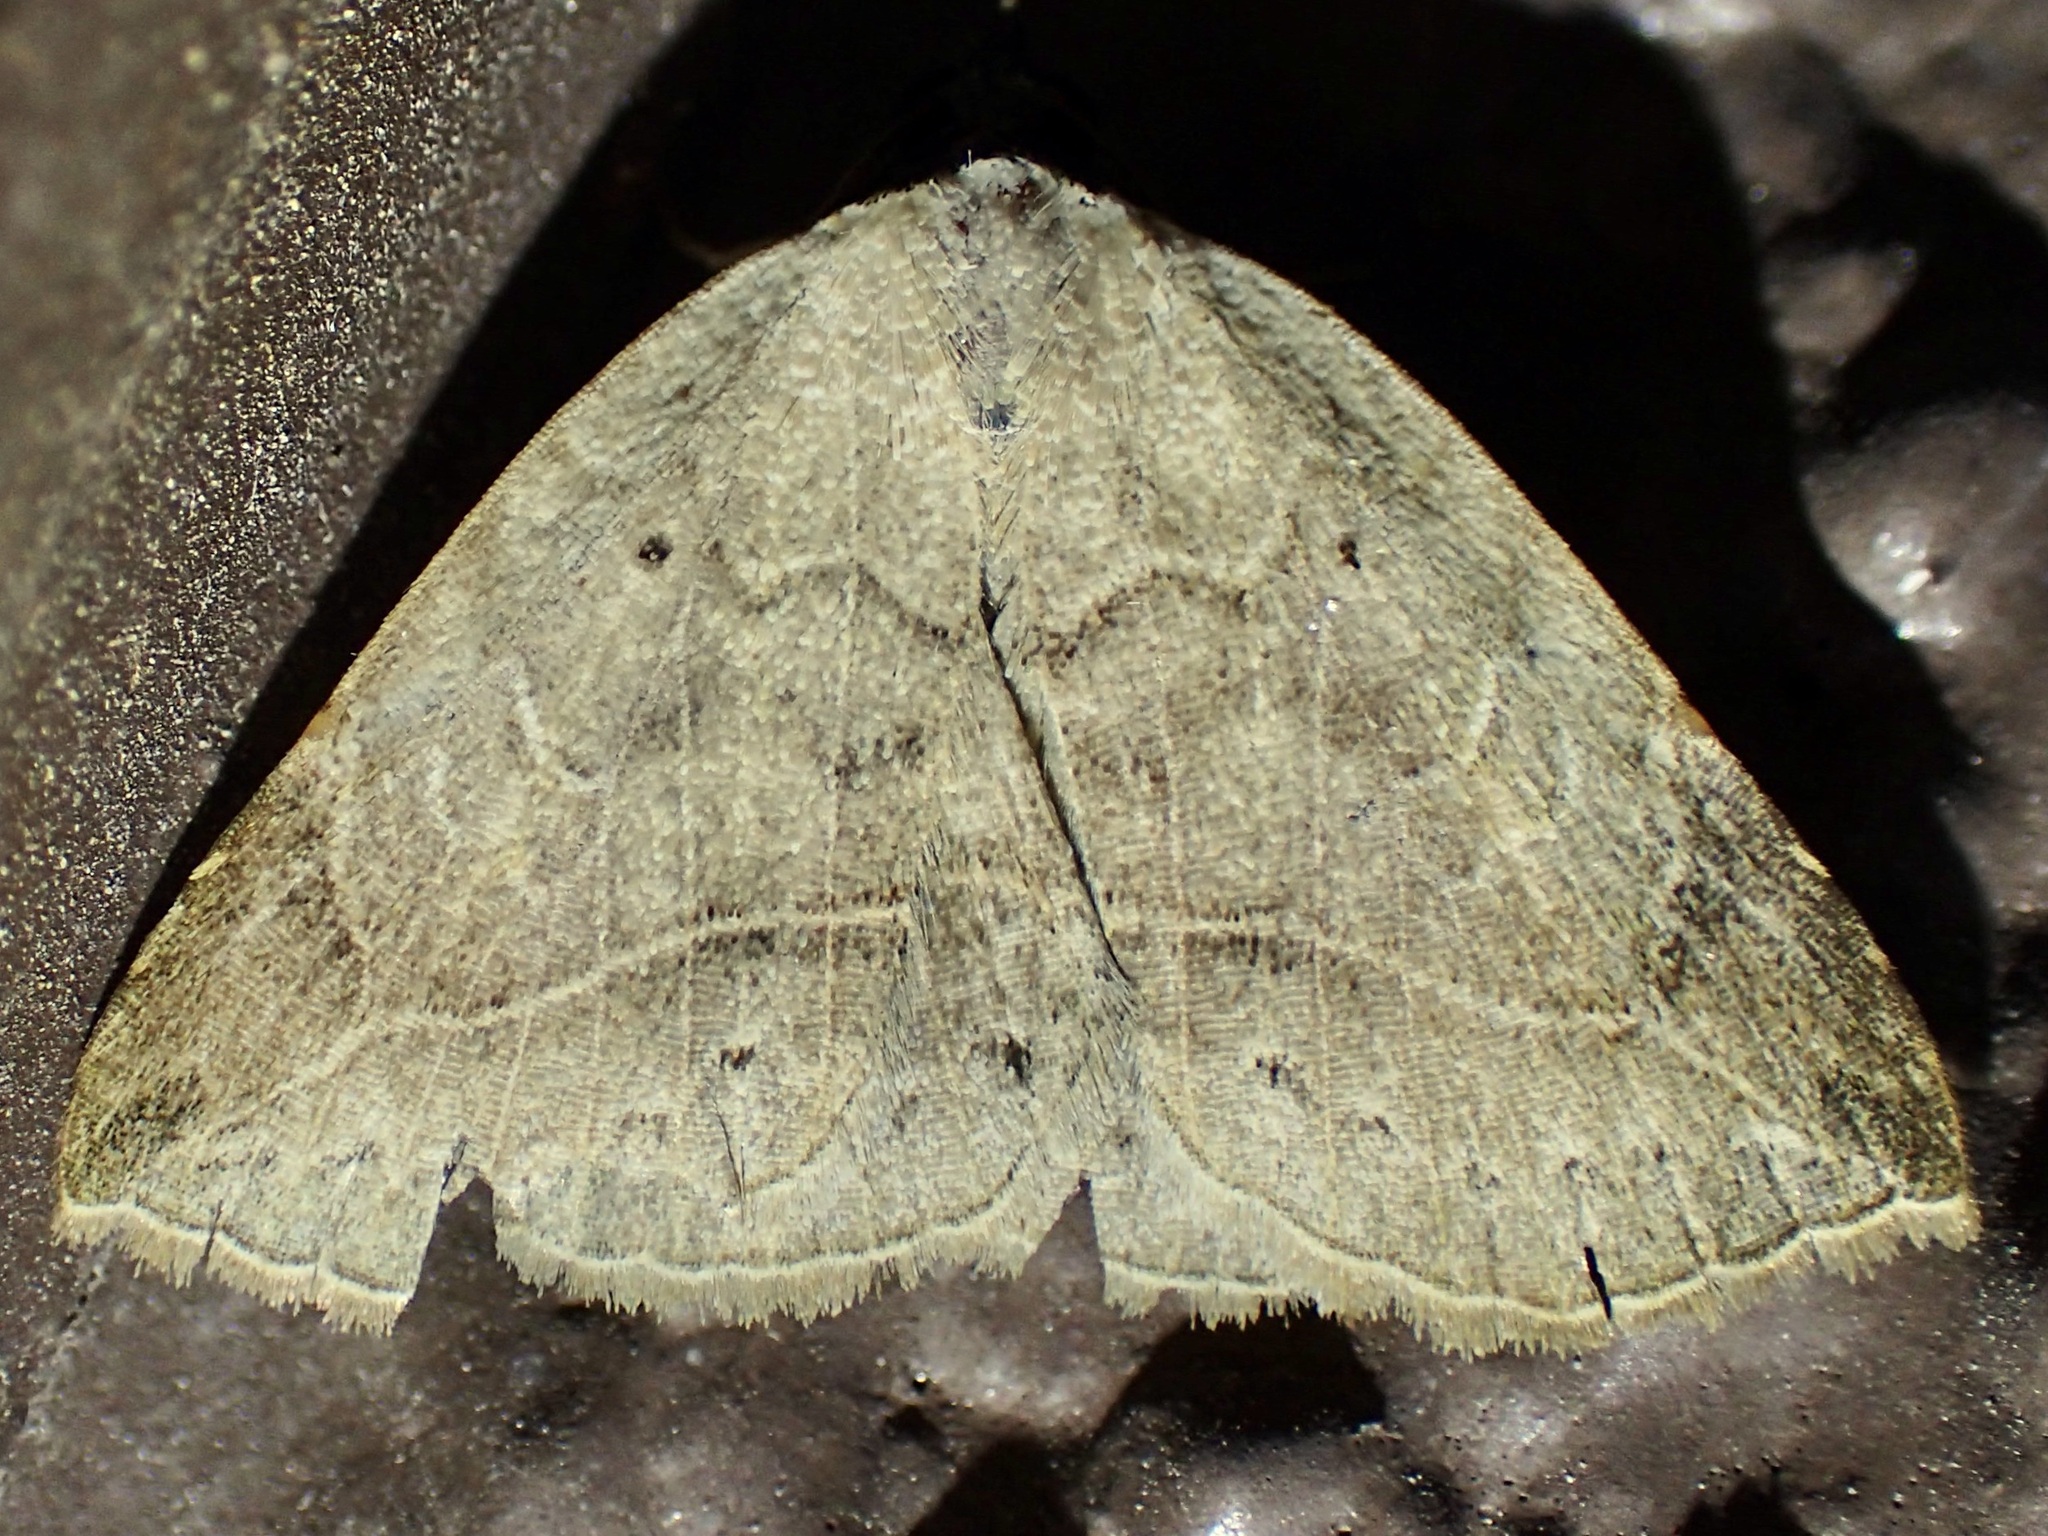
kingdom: Animalia
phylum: Arthropoda
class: Insecta
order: Lepidoptera
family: Erebidae
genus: Isogona
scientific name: Isogona segura
